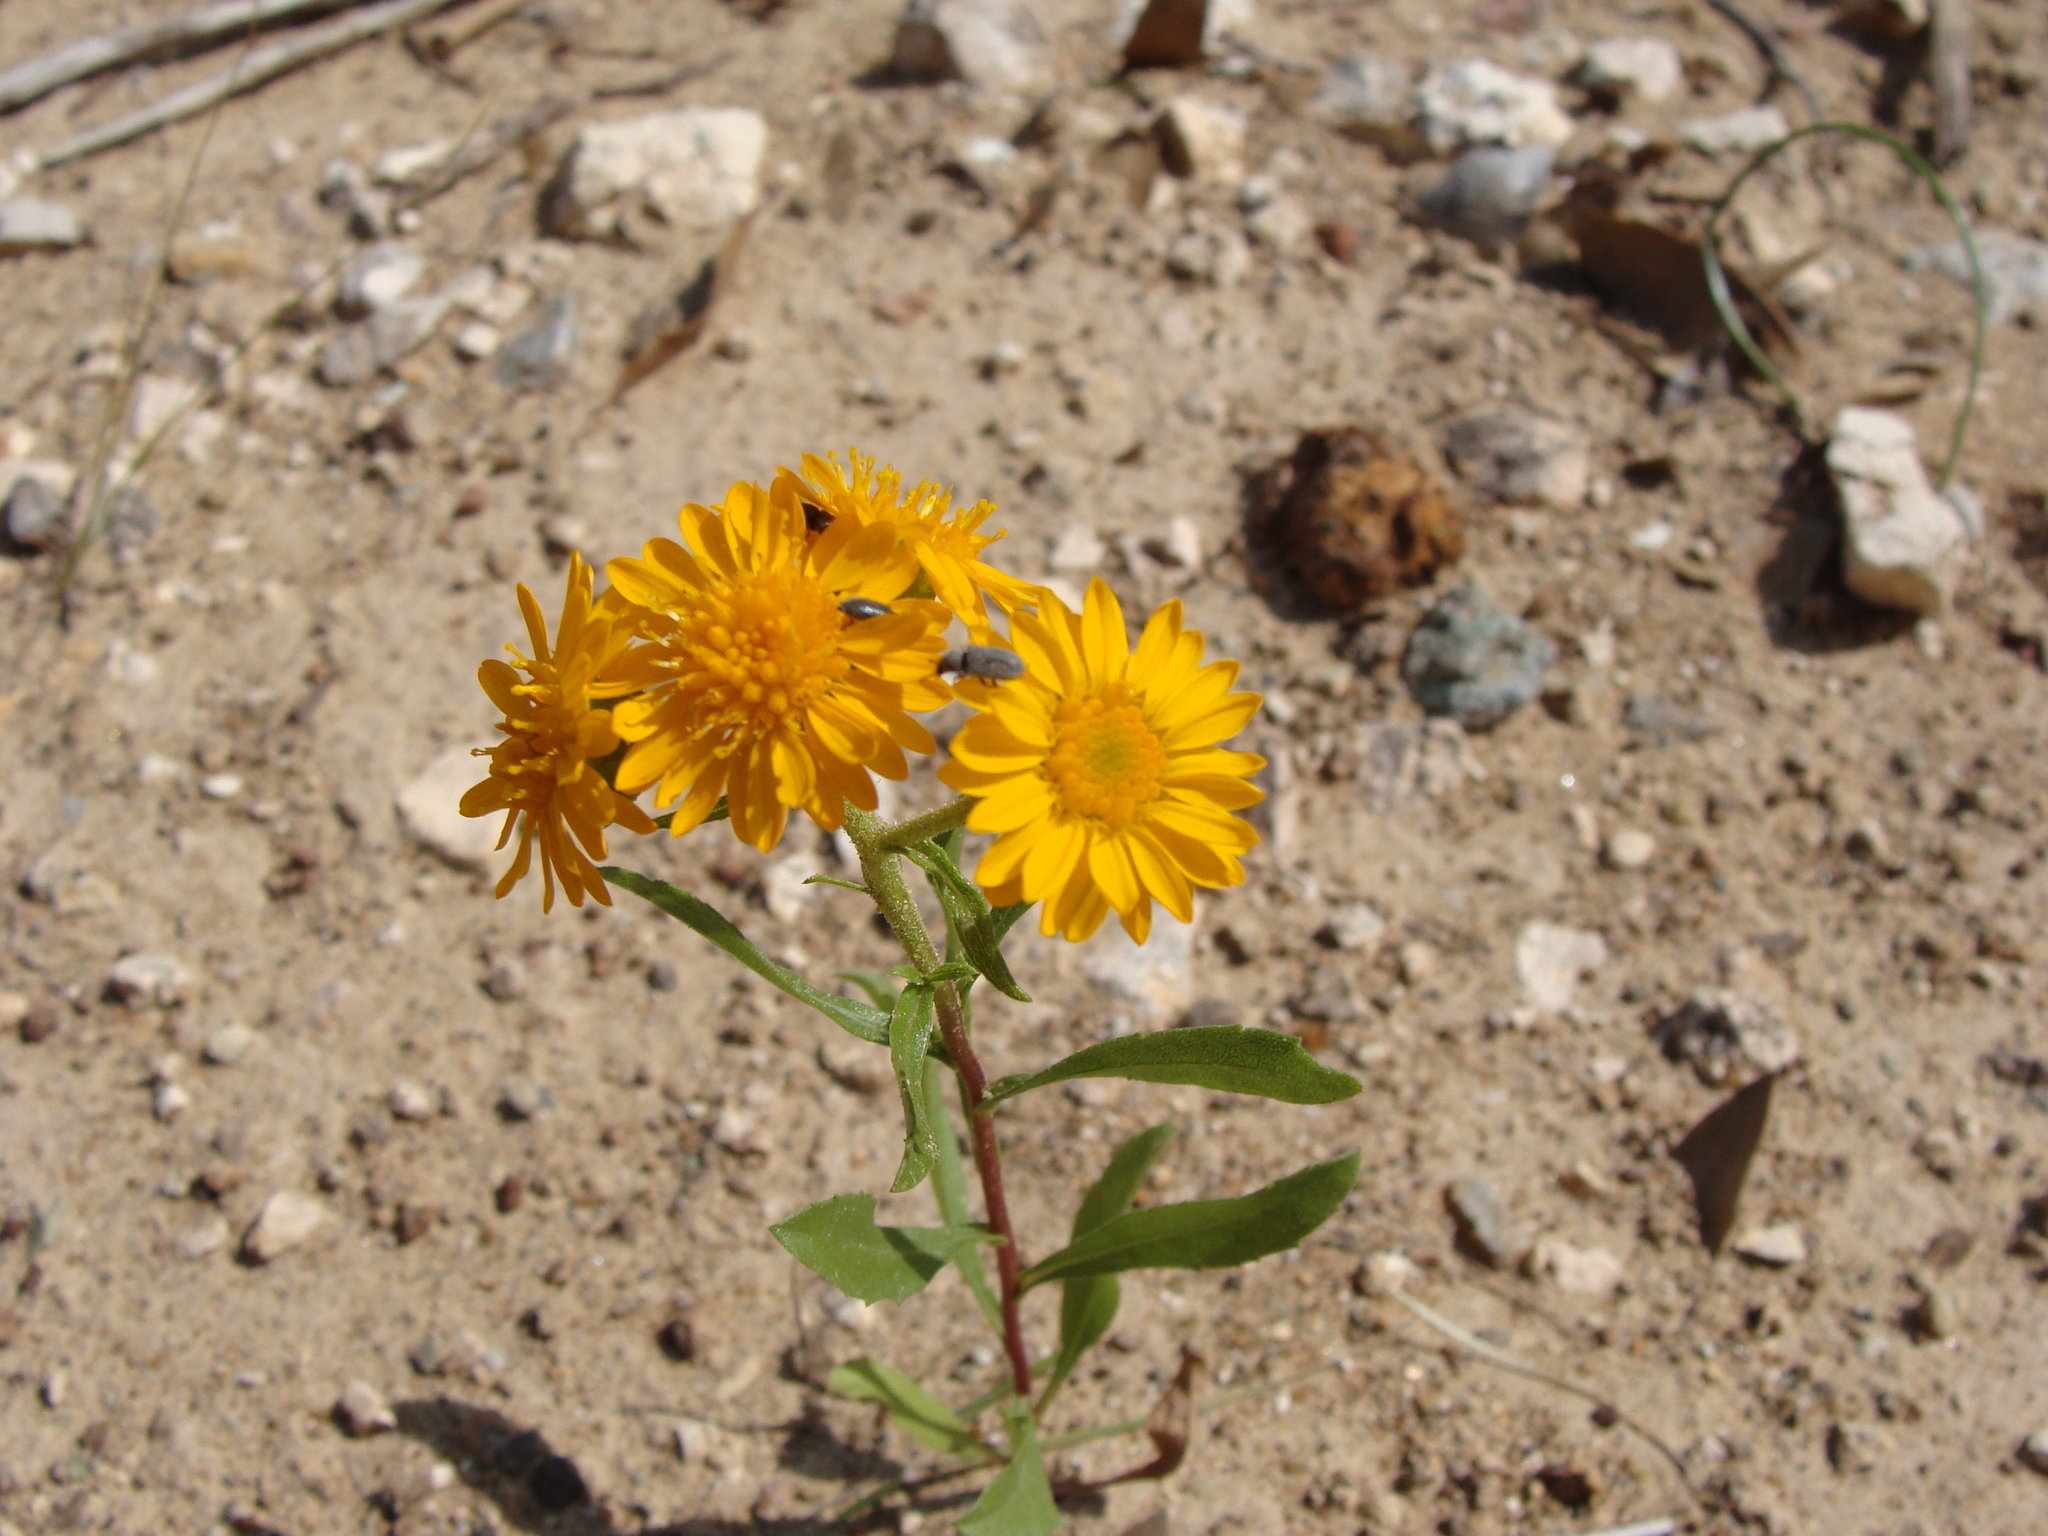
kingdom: Plantae
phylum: Tracheophyta
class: Magnoliopsida
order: Asterales
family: Asteraceae
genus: Xanthocephalum
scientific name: Xanthocephalum gymnospermoides
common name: San pedro matchweed
